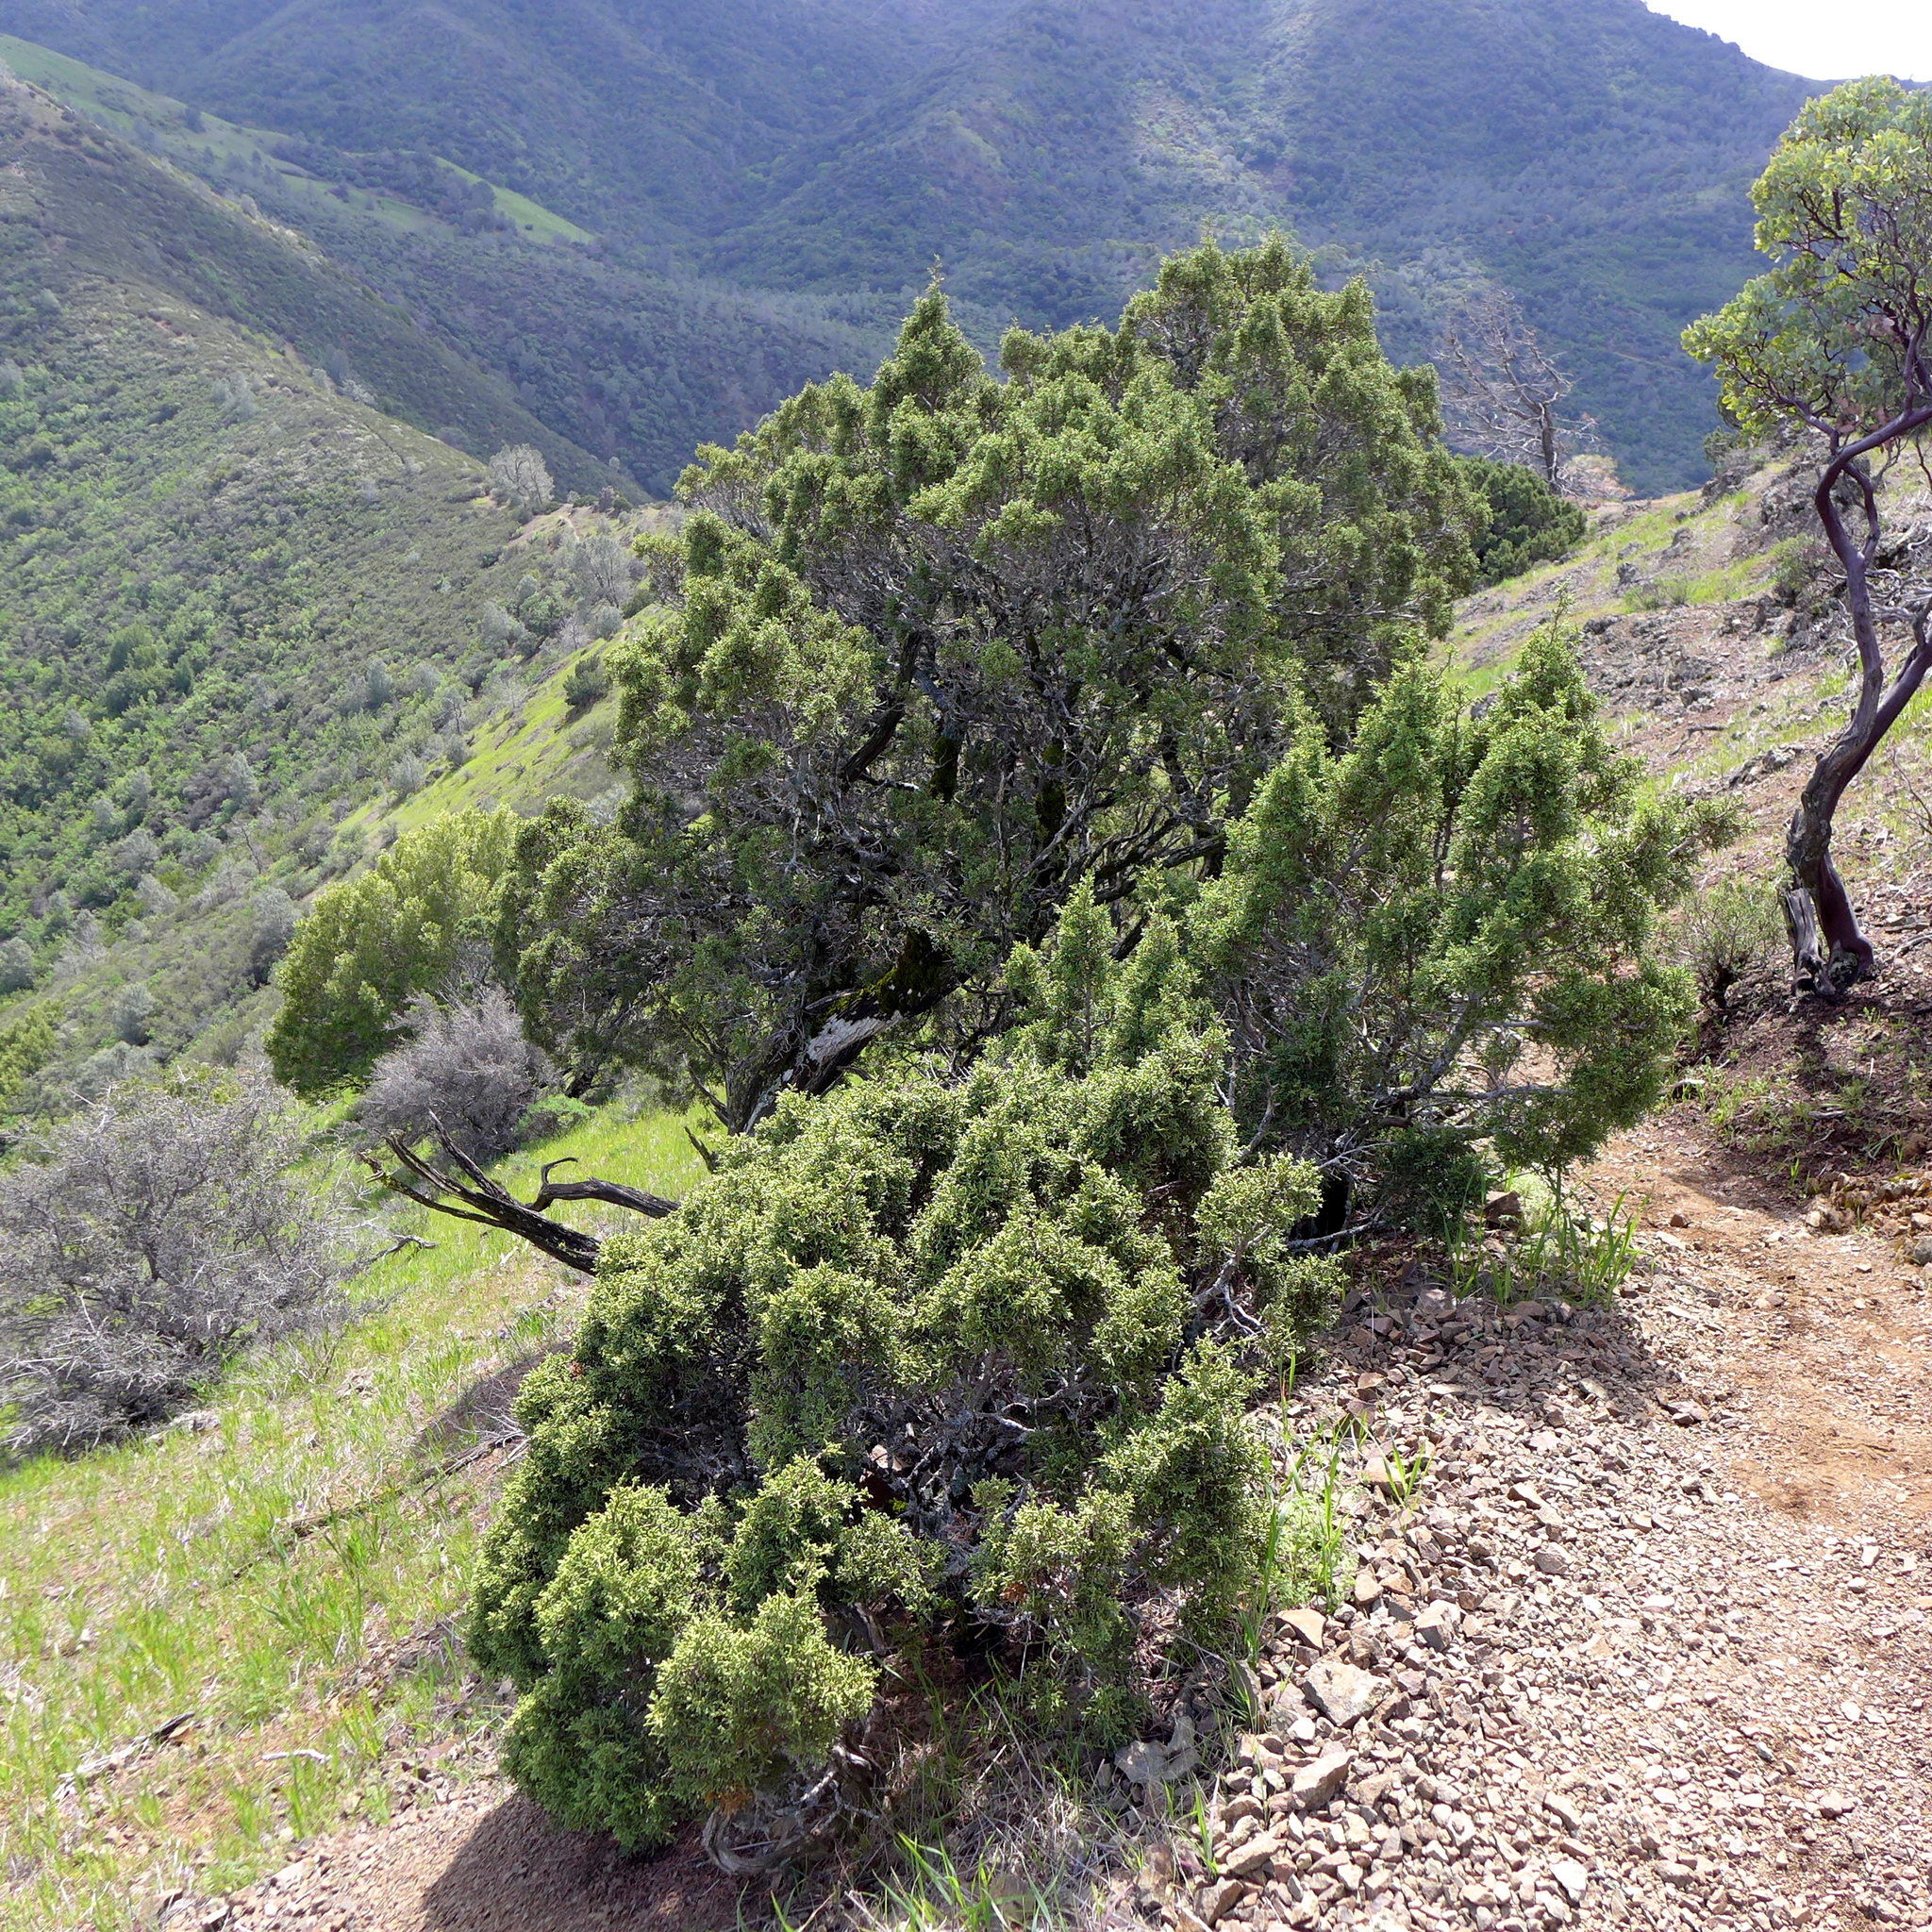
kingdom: Plantae
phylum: Tracheophyta
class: Pinopsida
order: Pinales
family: Cupressaceae
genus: Juniperus
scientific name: Juniperus californica
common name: California juniper
